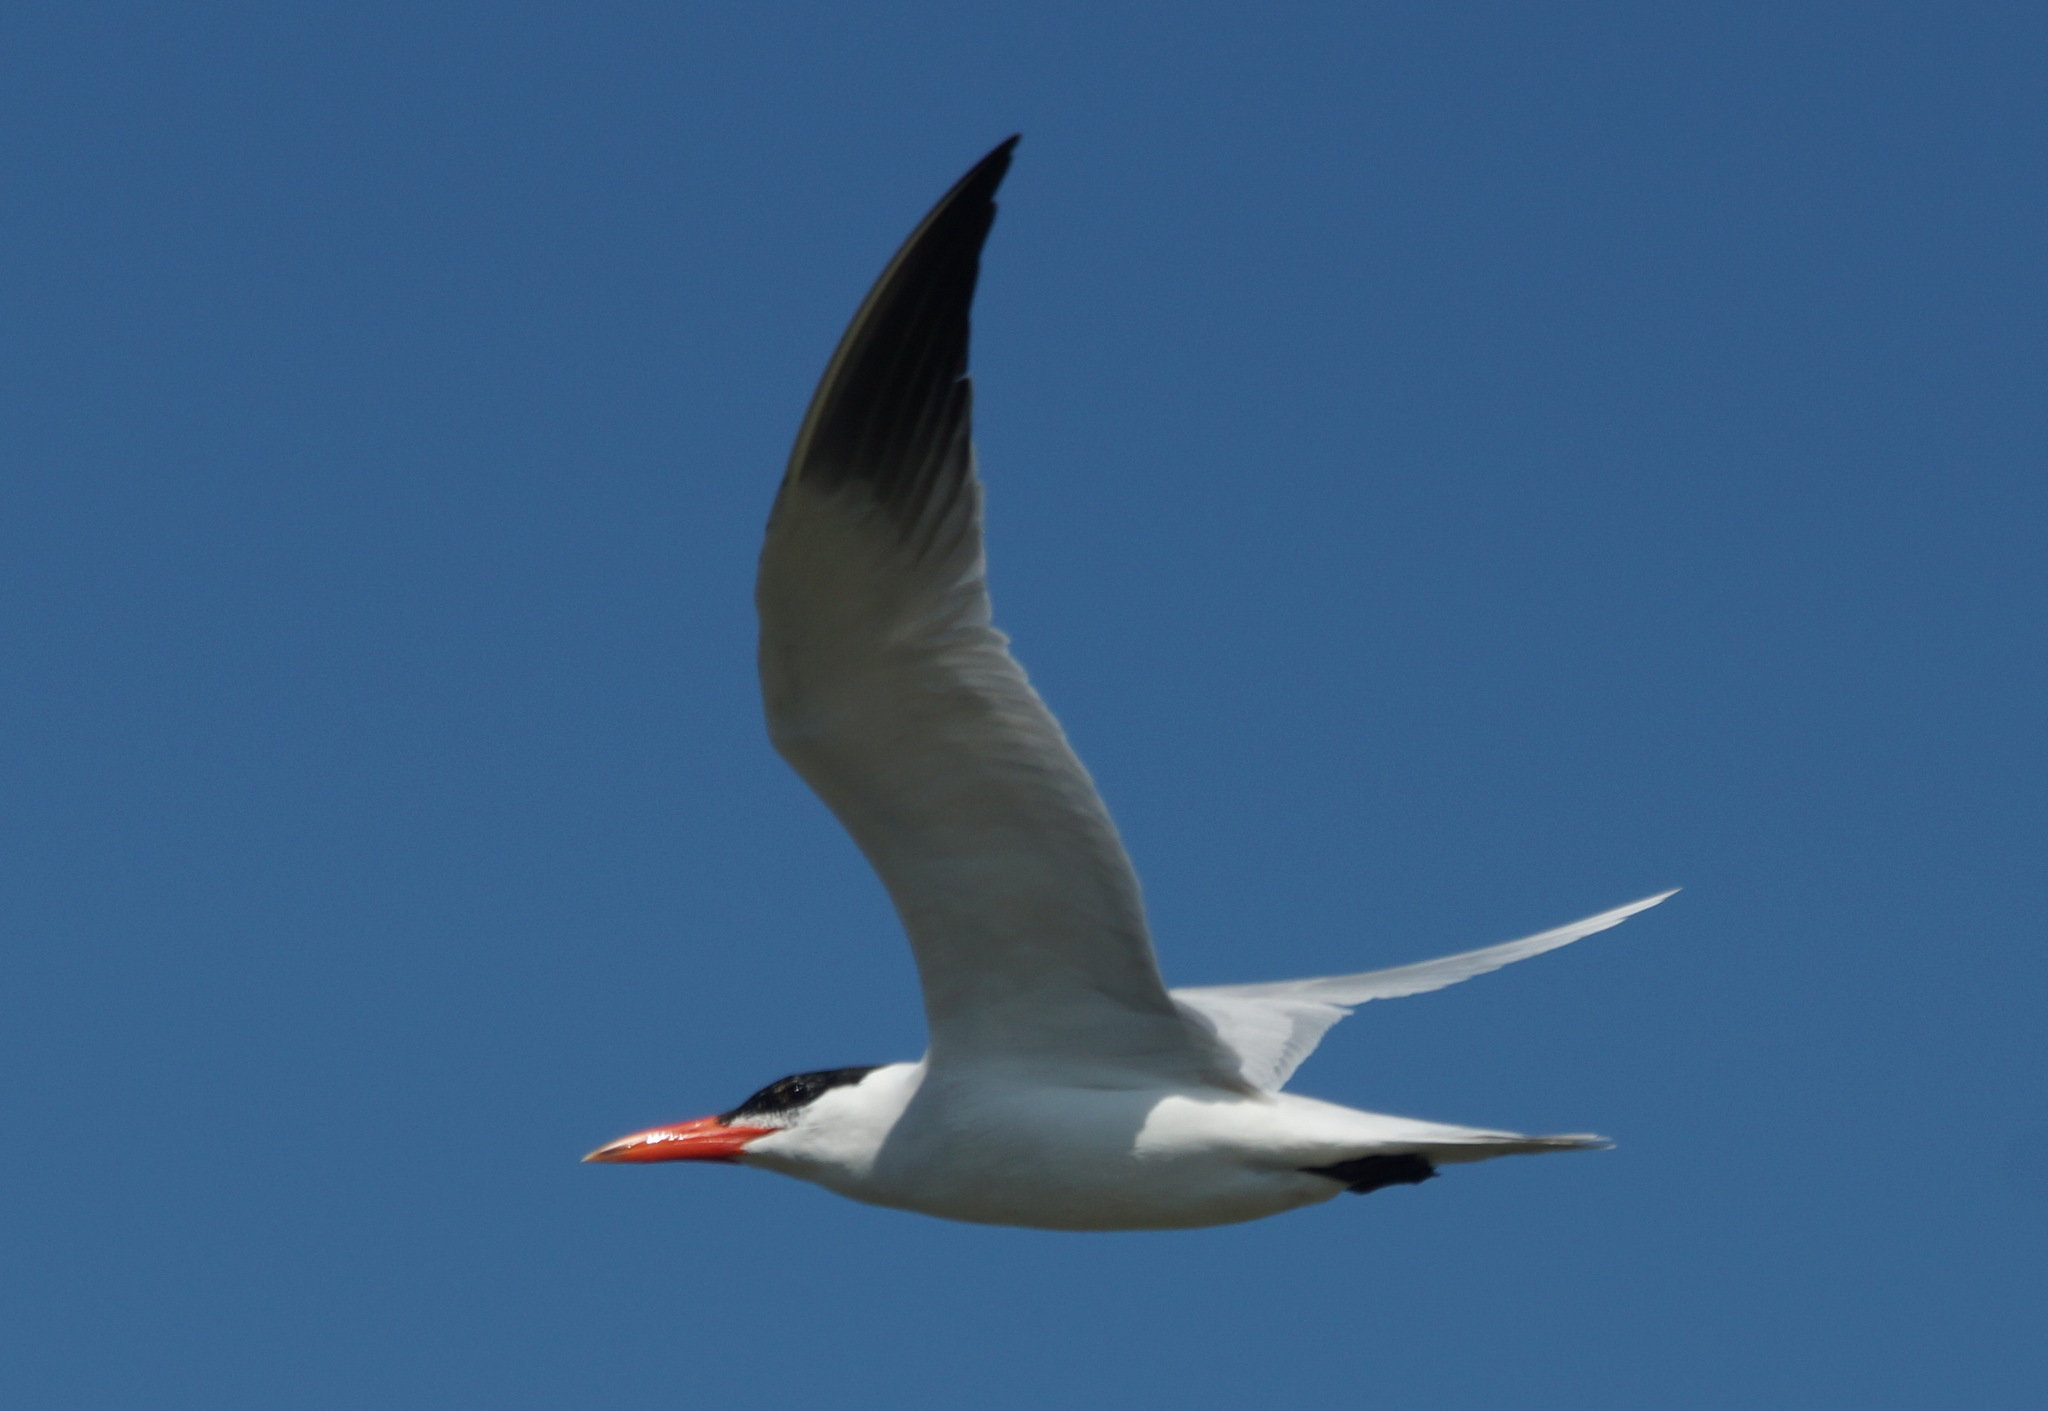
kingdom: Animalia
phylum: Chordata
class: Aves
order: Charadriiformes
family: Laridae
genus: Hydroprogne
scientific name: Hydroprogne caspia
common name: Caspian tern
